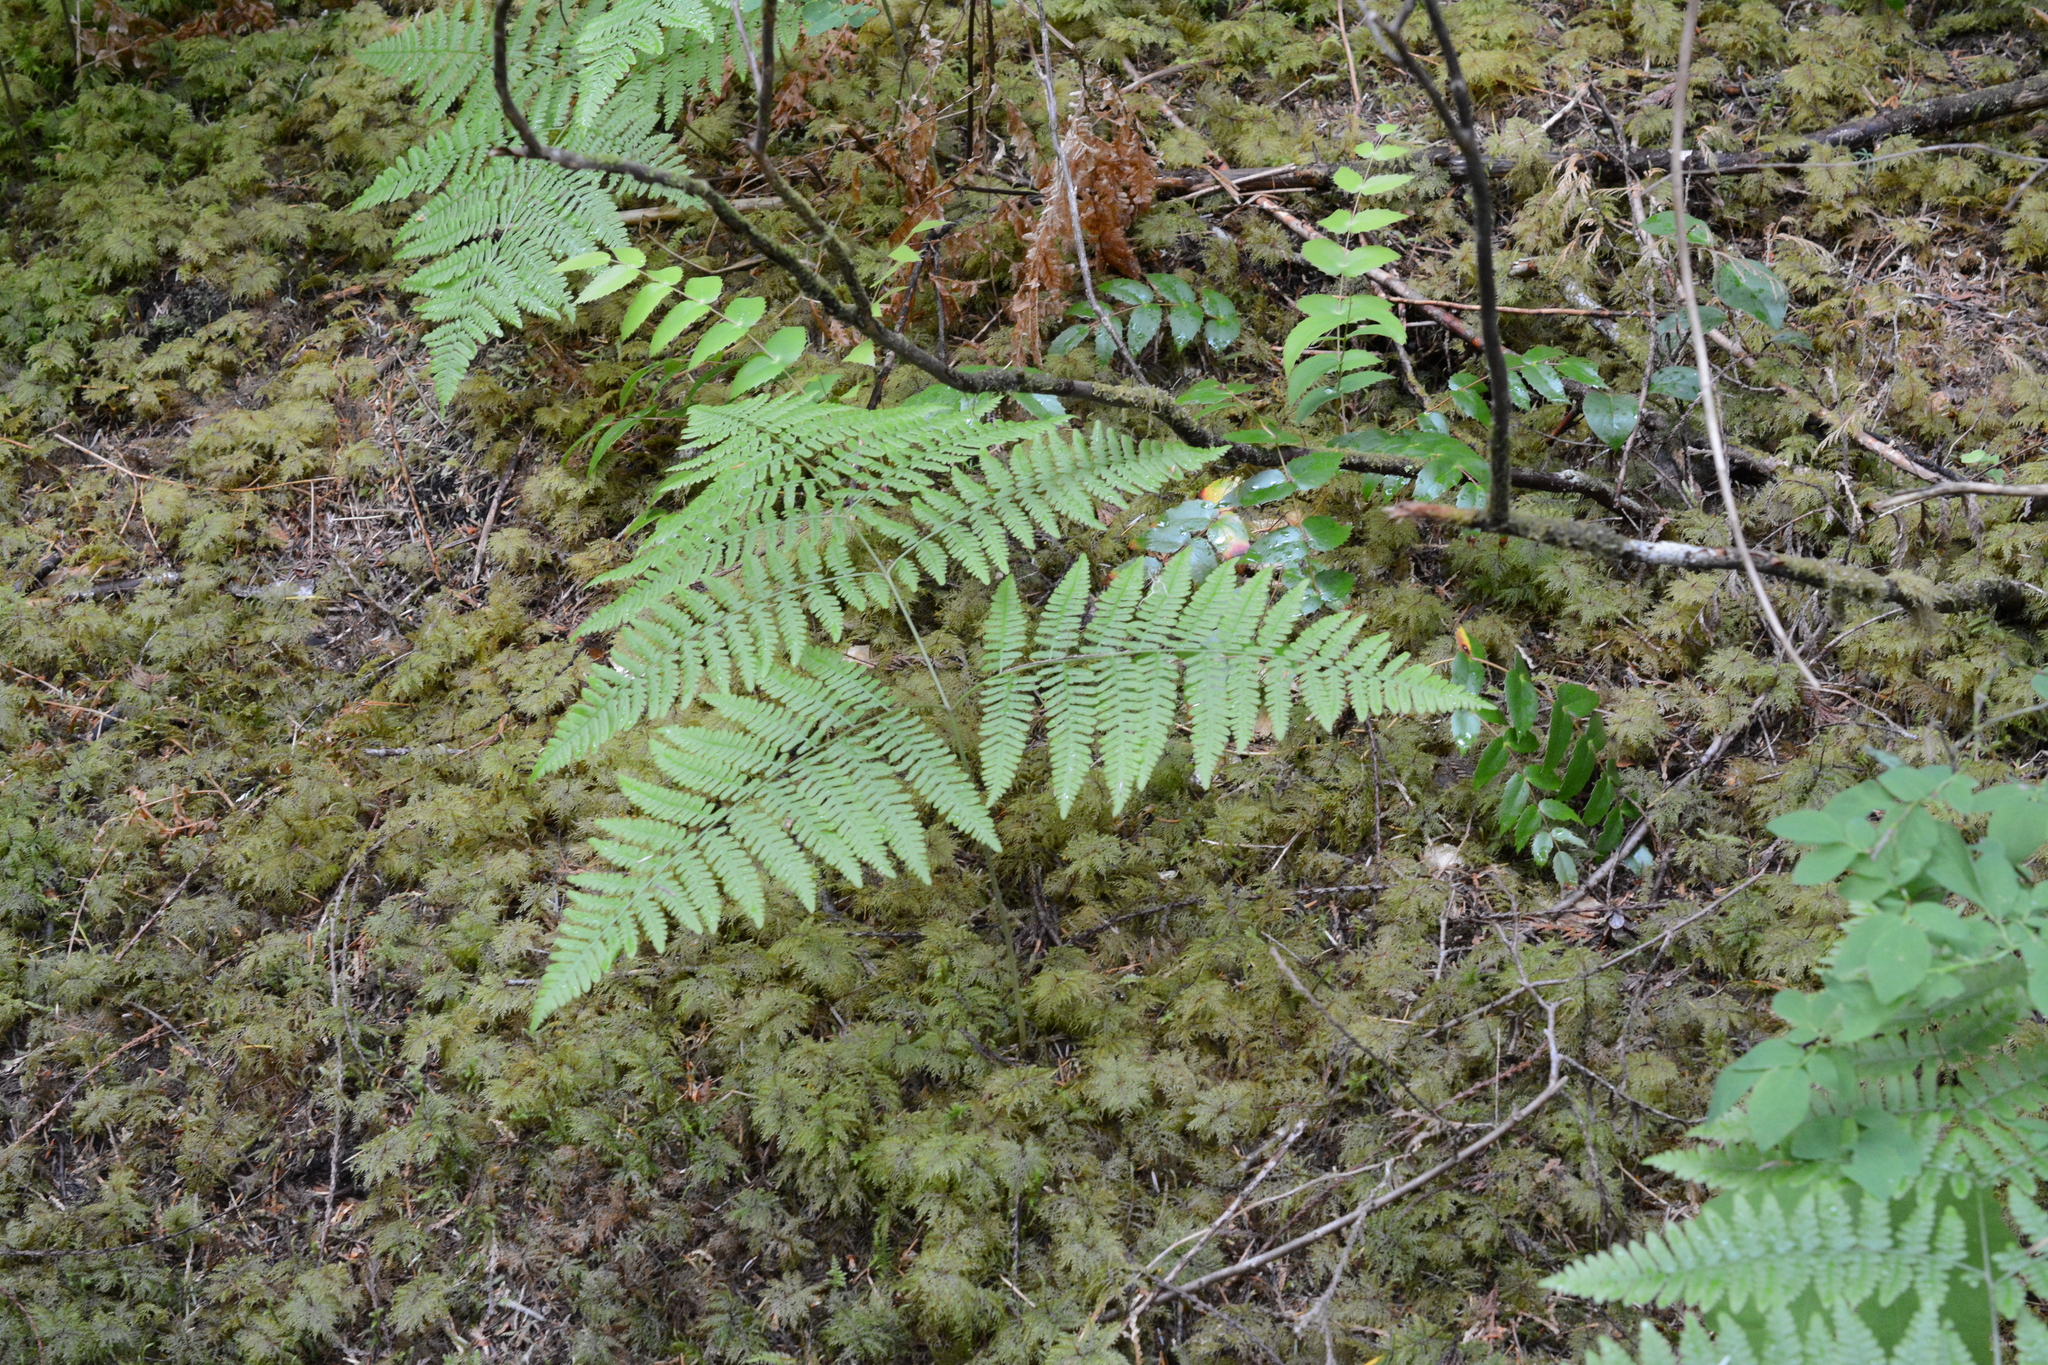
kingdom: Plantae
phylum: Tracheophyta
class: Polypodiopsida
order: Polypodiales
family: Dennstaedtiaceae
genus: Pteridium
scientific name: Pteridium aquilinum
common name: Bracken
